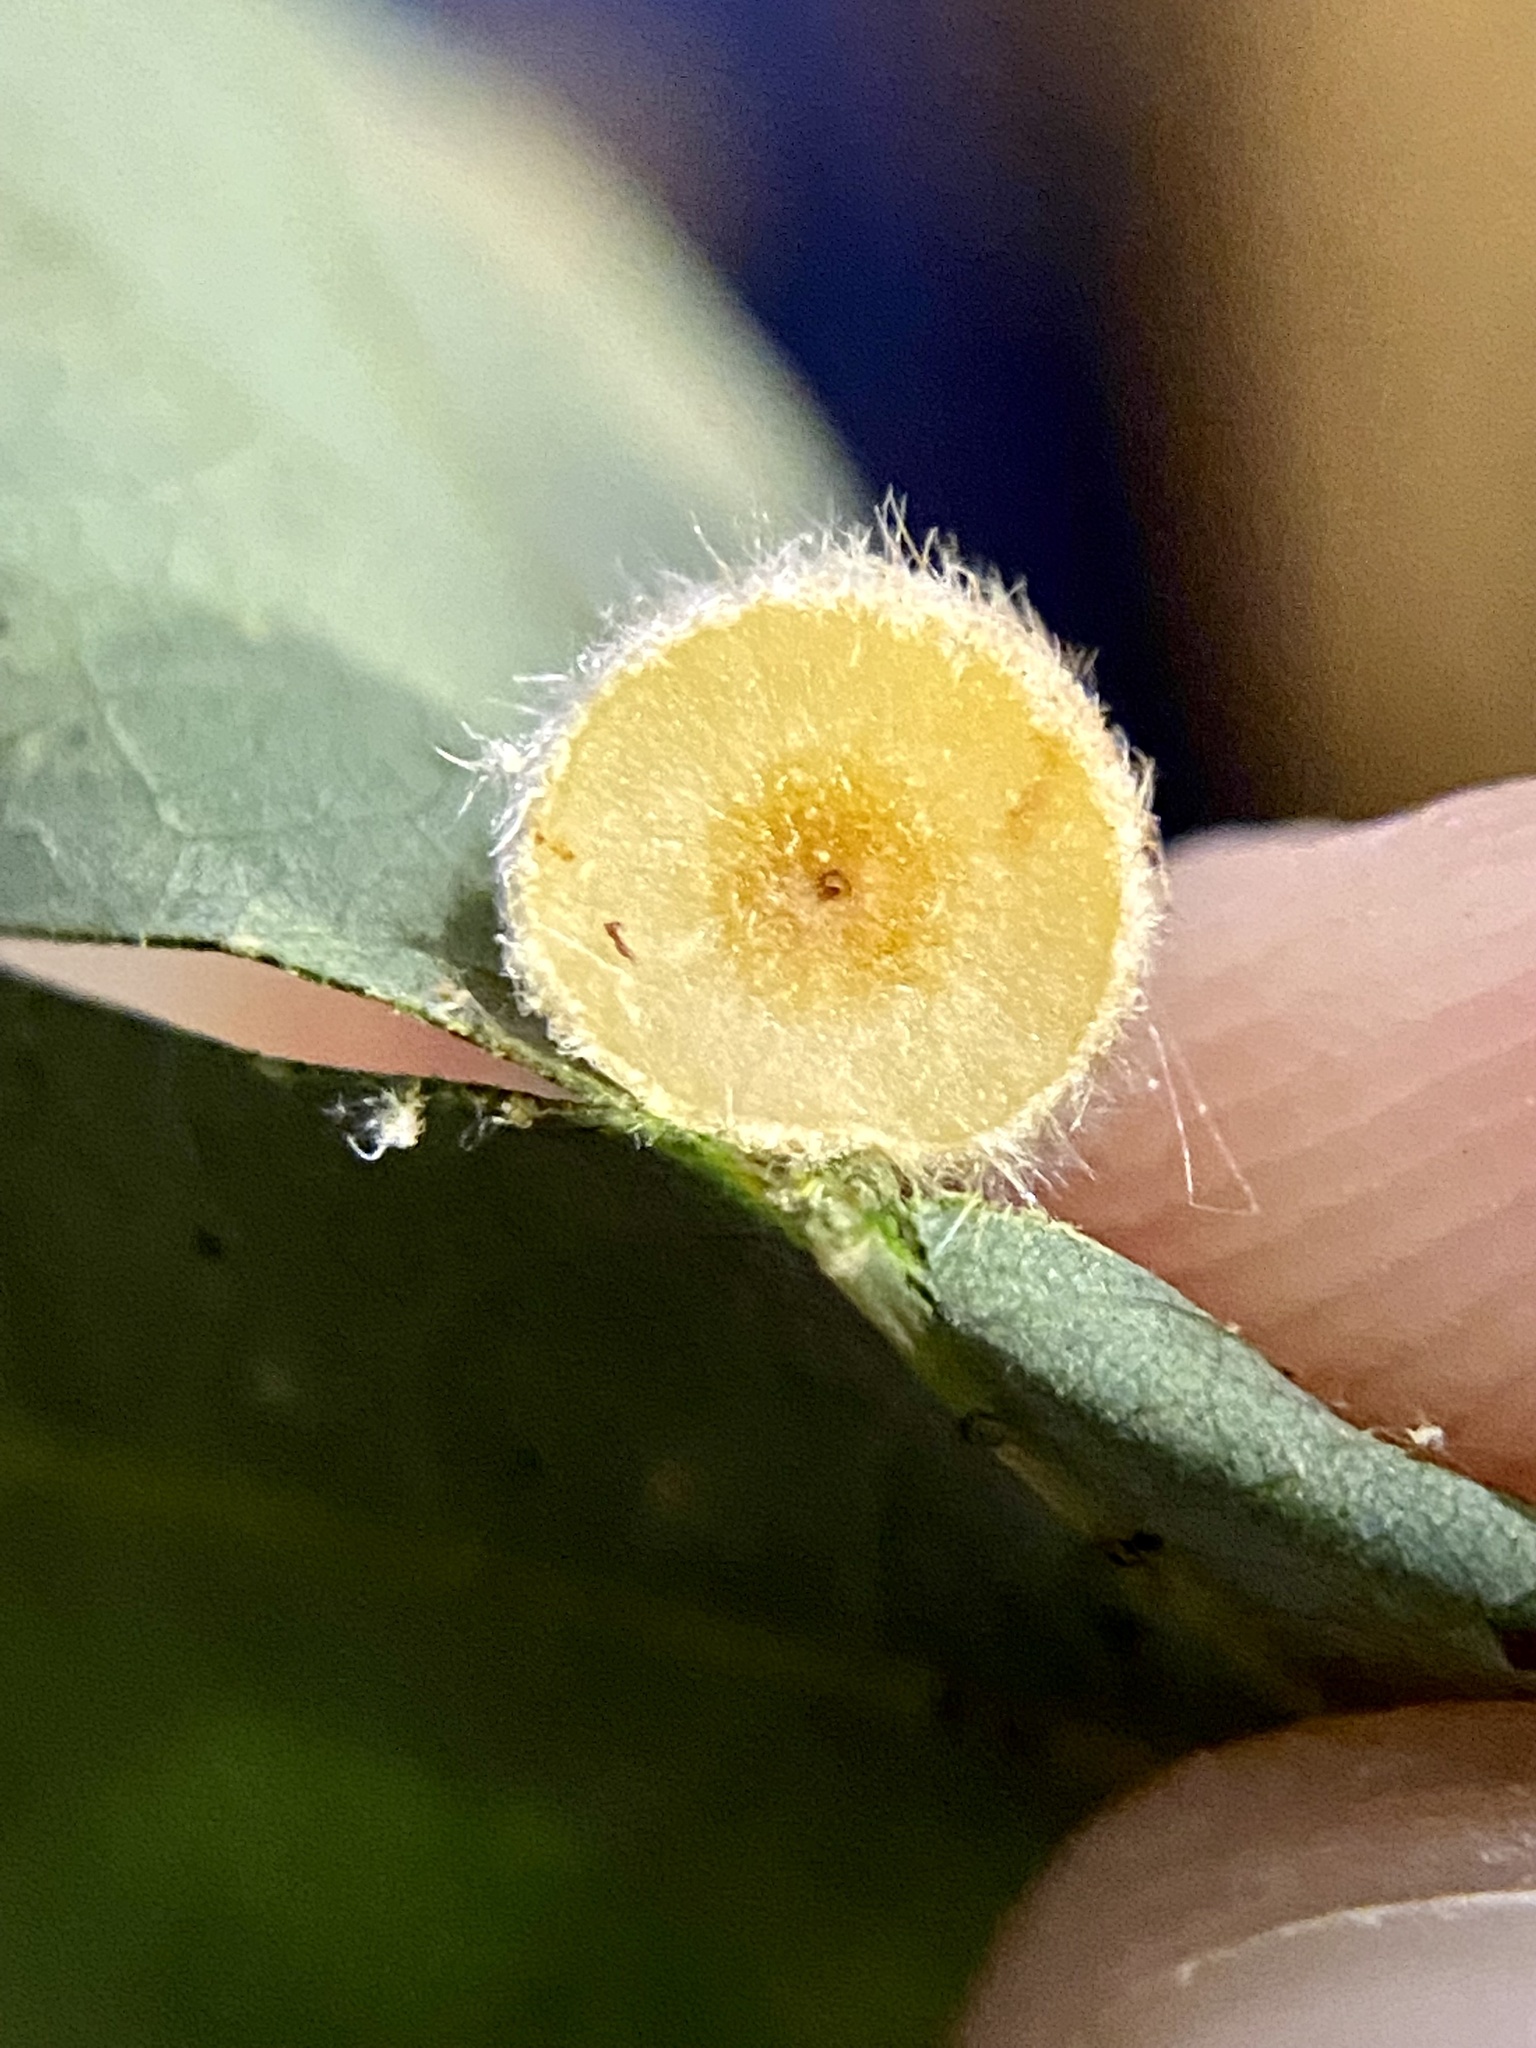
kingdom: Animalia
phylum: Arthropoda
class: Insecta
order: Hymenoptera
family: Cynipidae
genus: Philonix
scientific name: Philonix fulvicollis
